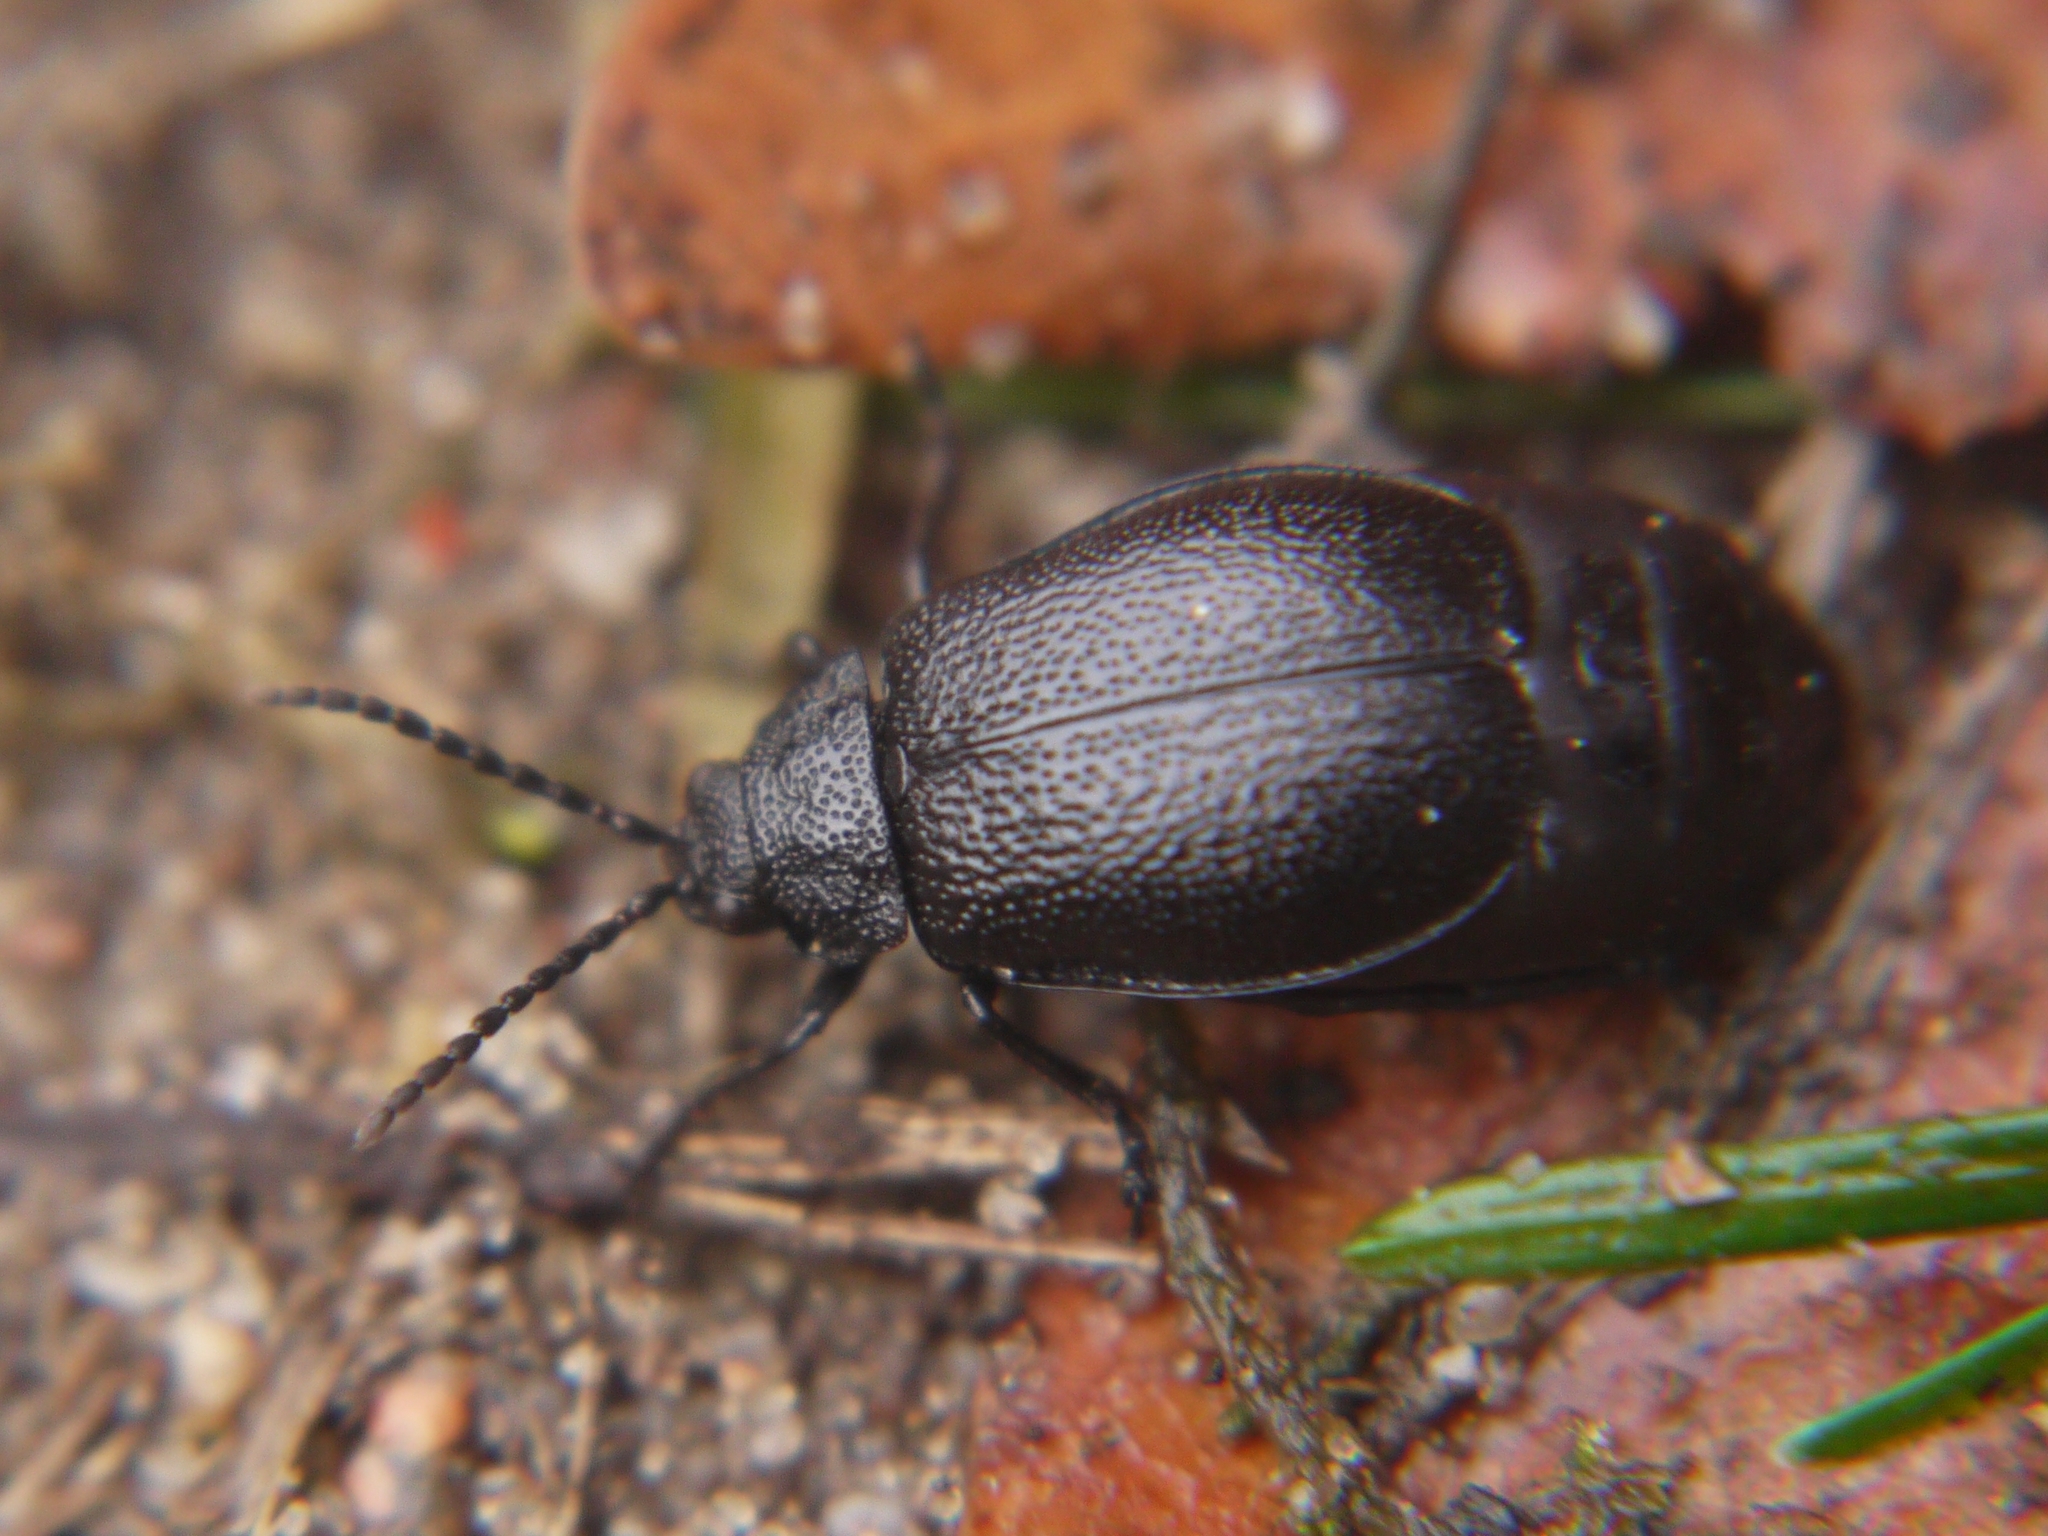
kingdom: Animalia
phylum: Arthropoda
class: Insecta
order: Coleoptera
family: Chrysomelidae
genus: Galeruca
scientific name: Galeruca tanaceti
